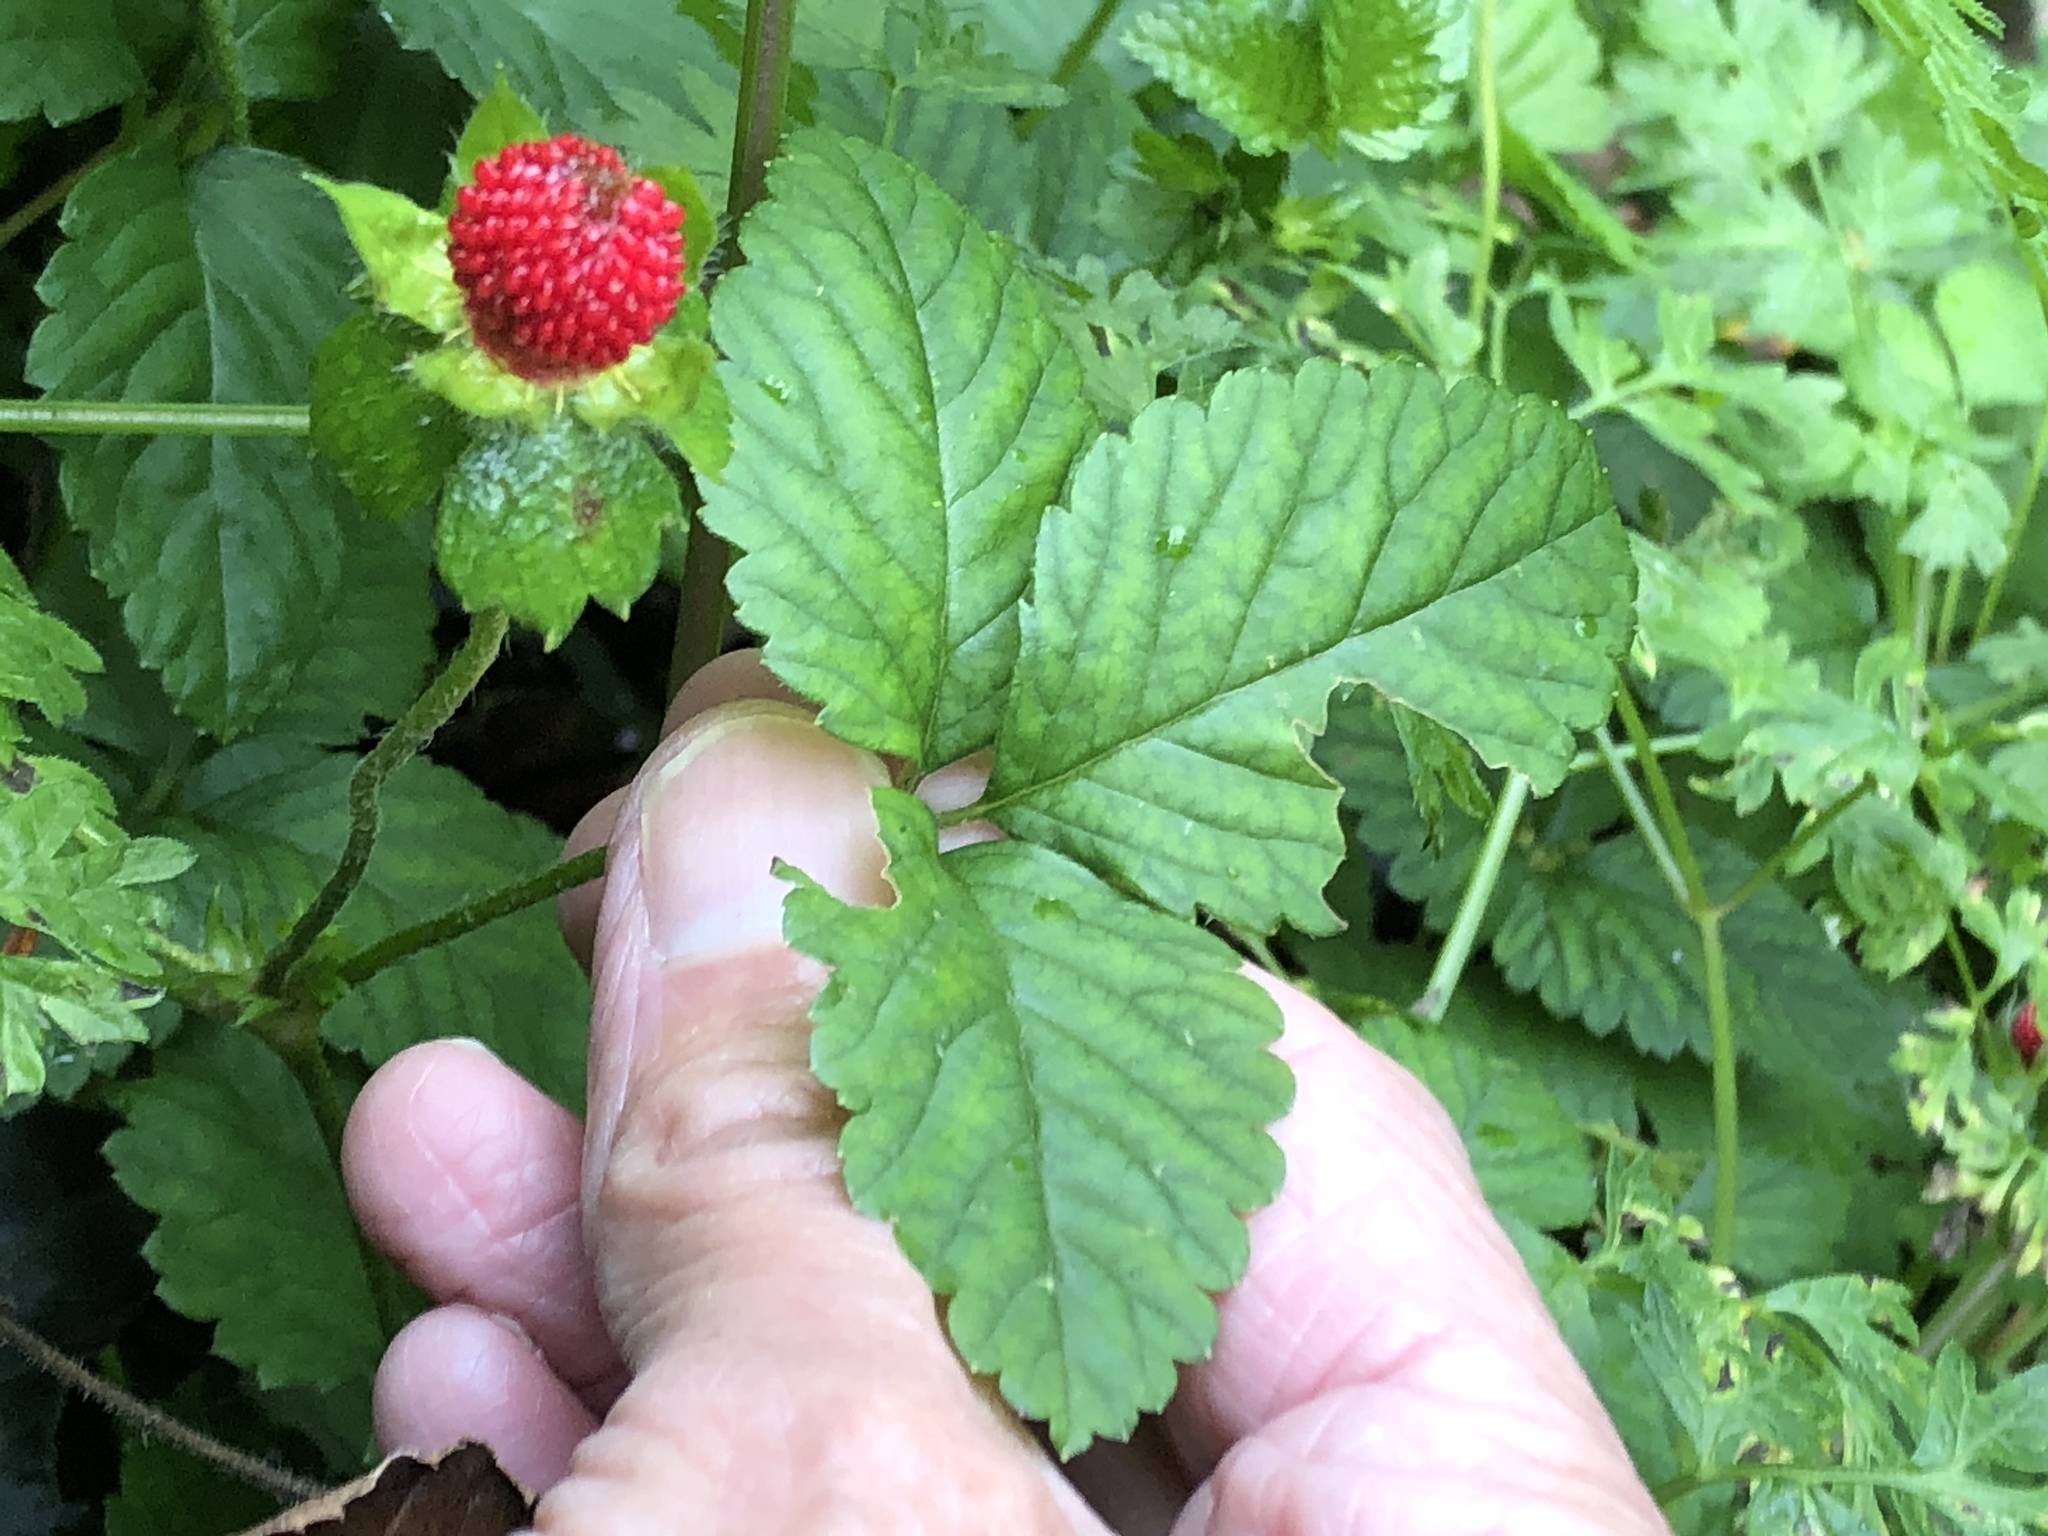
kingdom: Plantae
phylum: Tracheophyta
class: Magnoliopsida
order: Rosales
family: Rosaceae
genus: Potentilla
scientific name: Potentilla indica
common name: Yellow-flowered strawberry
